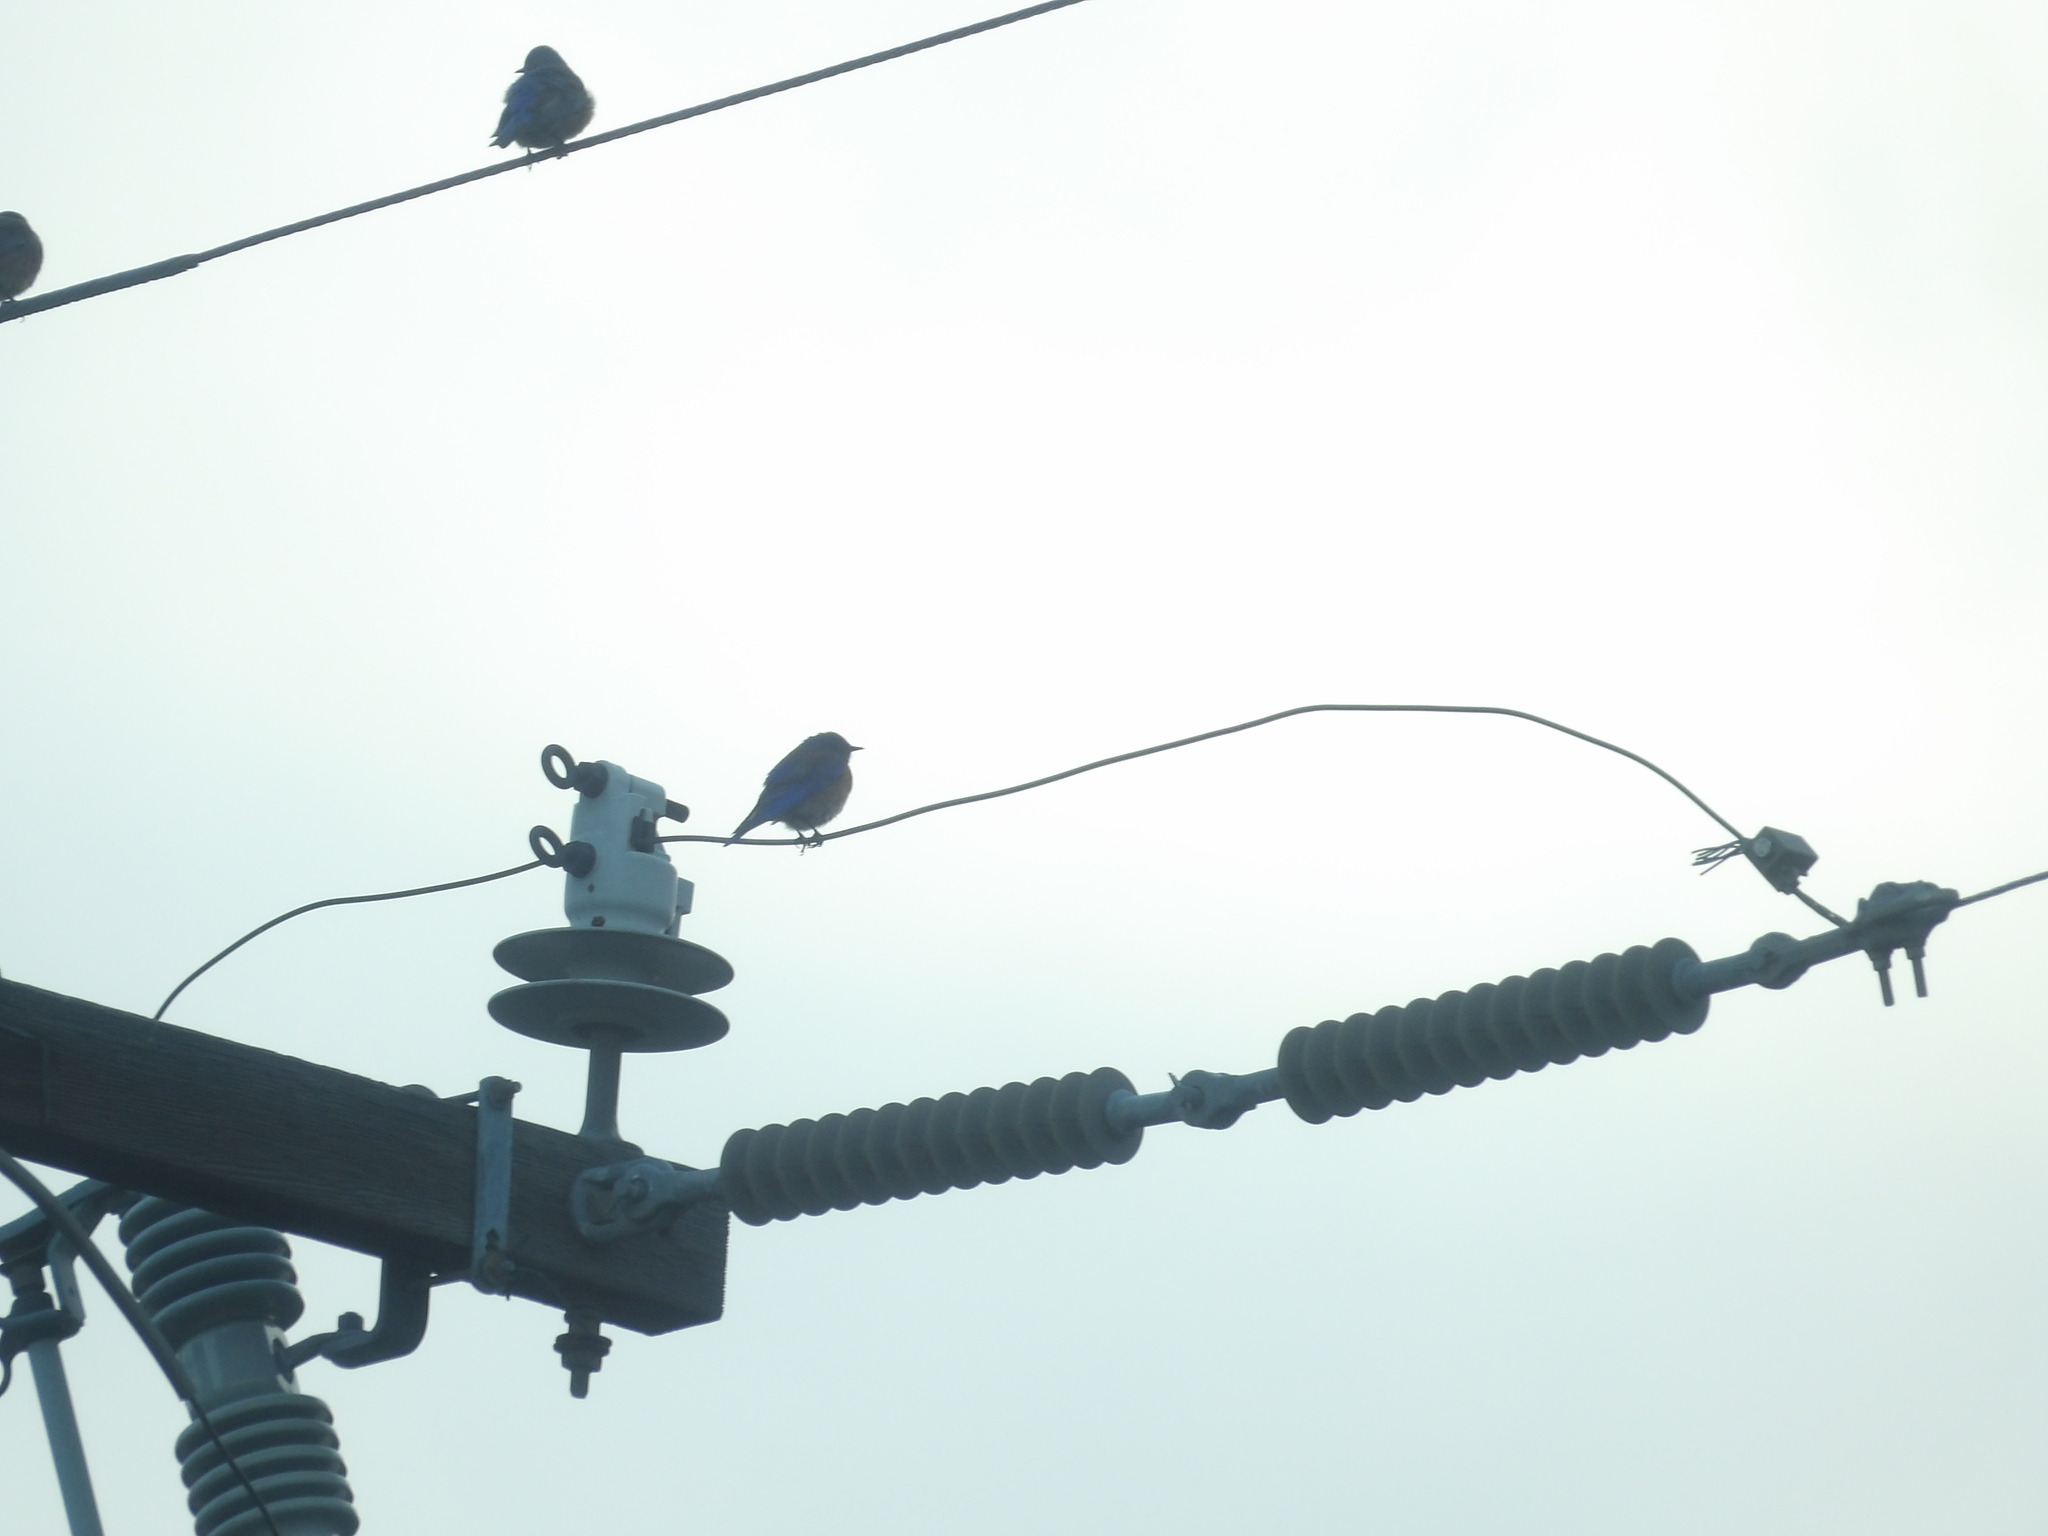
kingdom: Animalia
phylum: Chordata
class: Aves
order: Passeriformes
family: Turdidae
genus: Sialia
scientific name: Sialia mexicana
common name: Western bluebird
